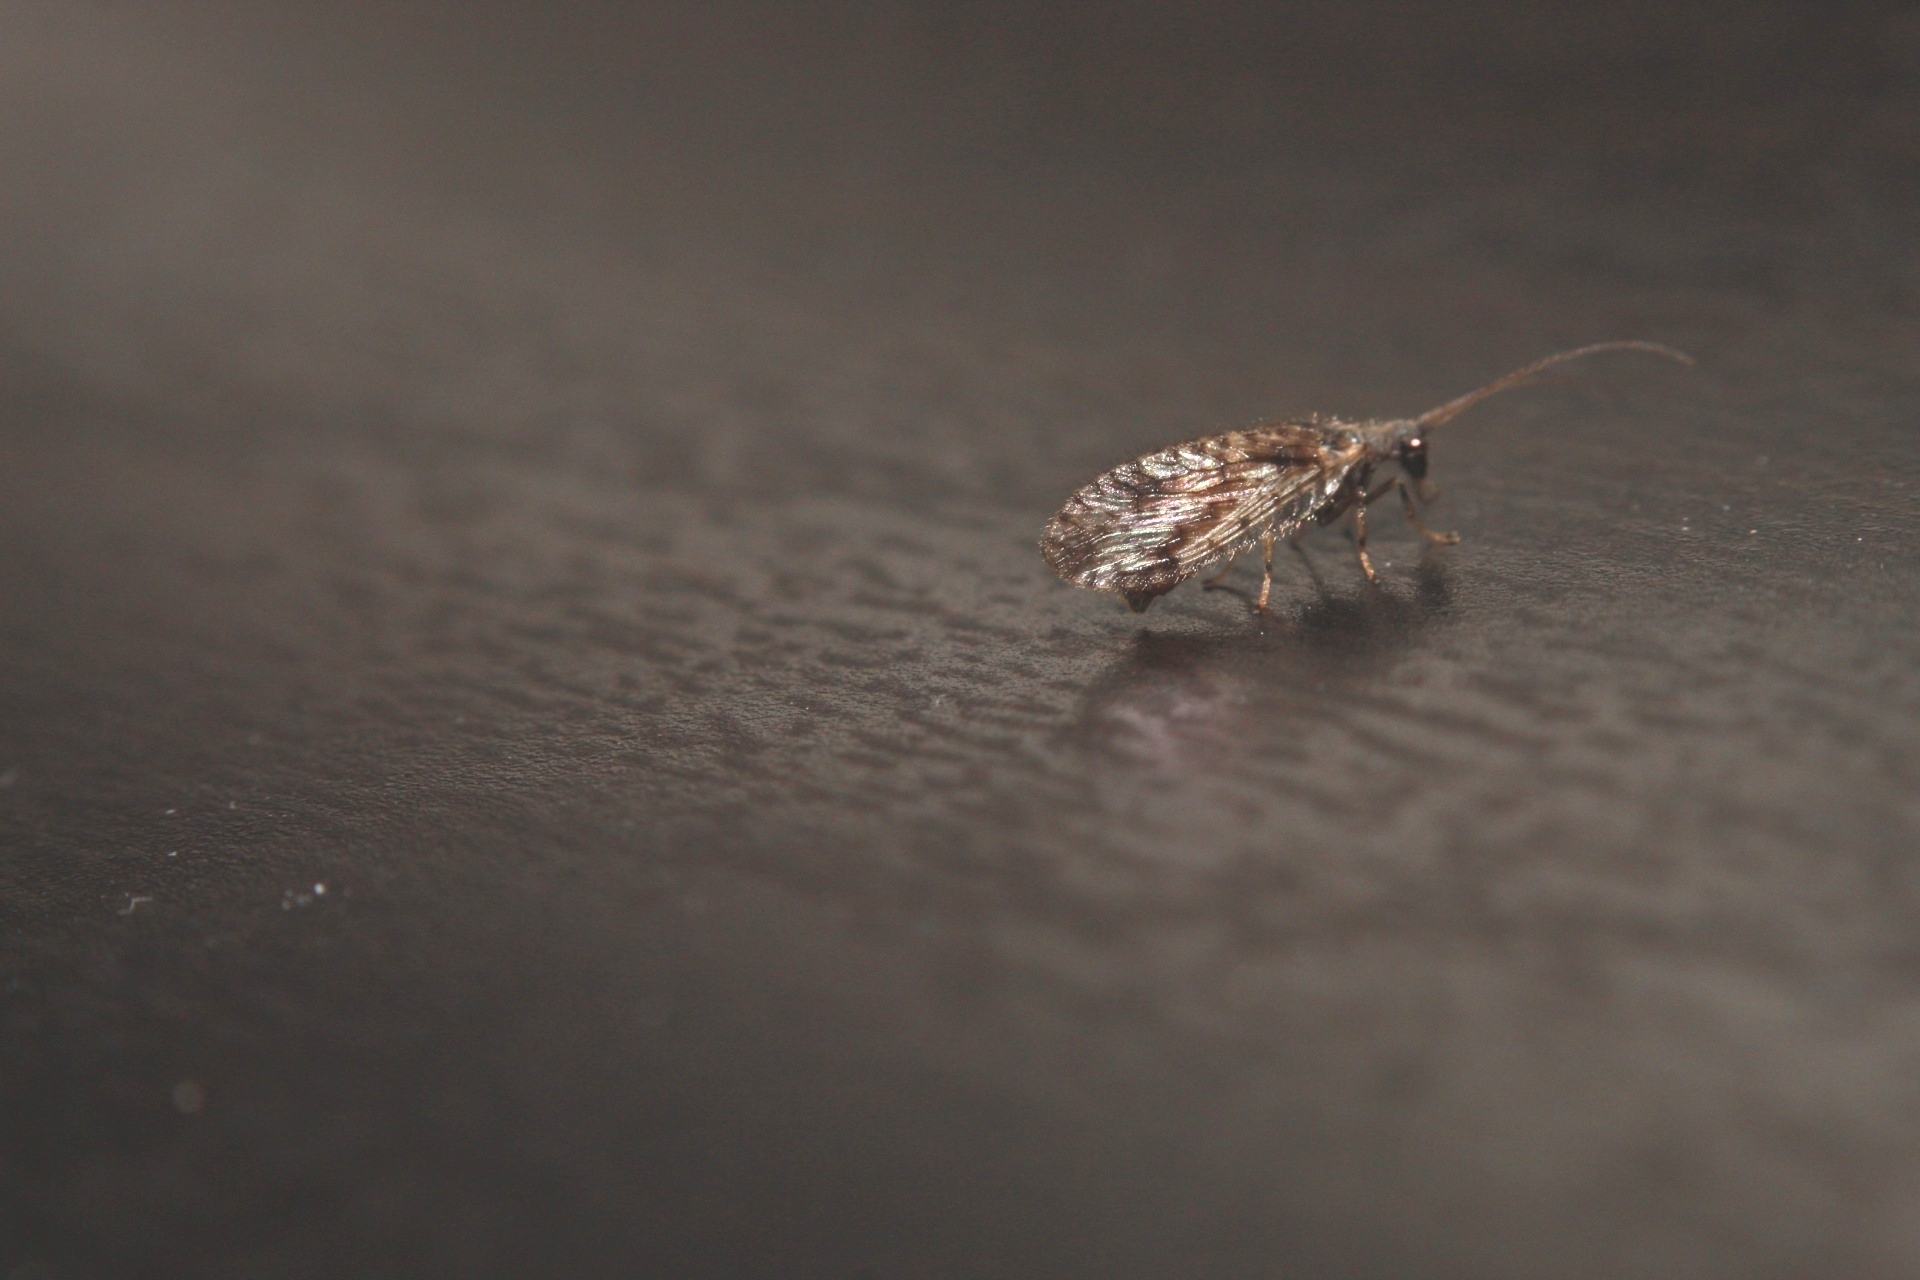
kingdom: Animalia
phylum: Arthropoda
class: Insecta
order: Neuroptera
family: Hemerobiidae
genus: Micromus
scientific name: Micromus variegatus
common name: Brown lacewing
